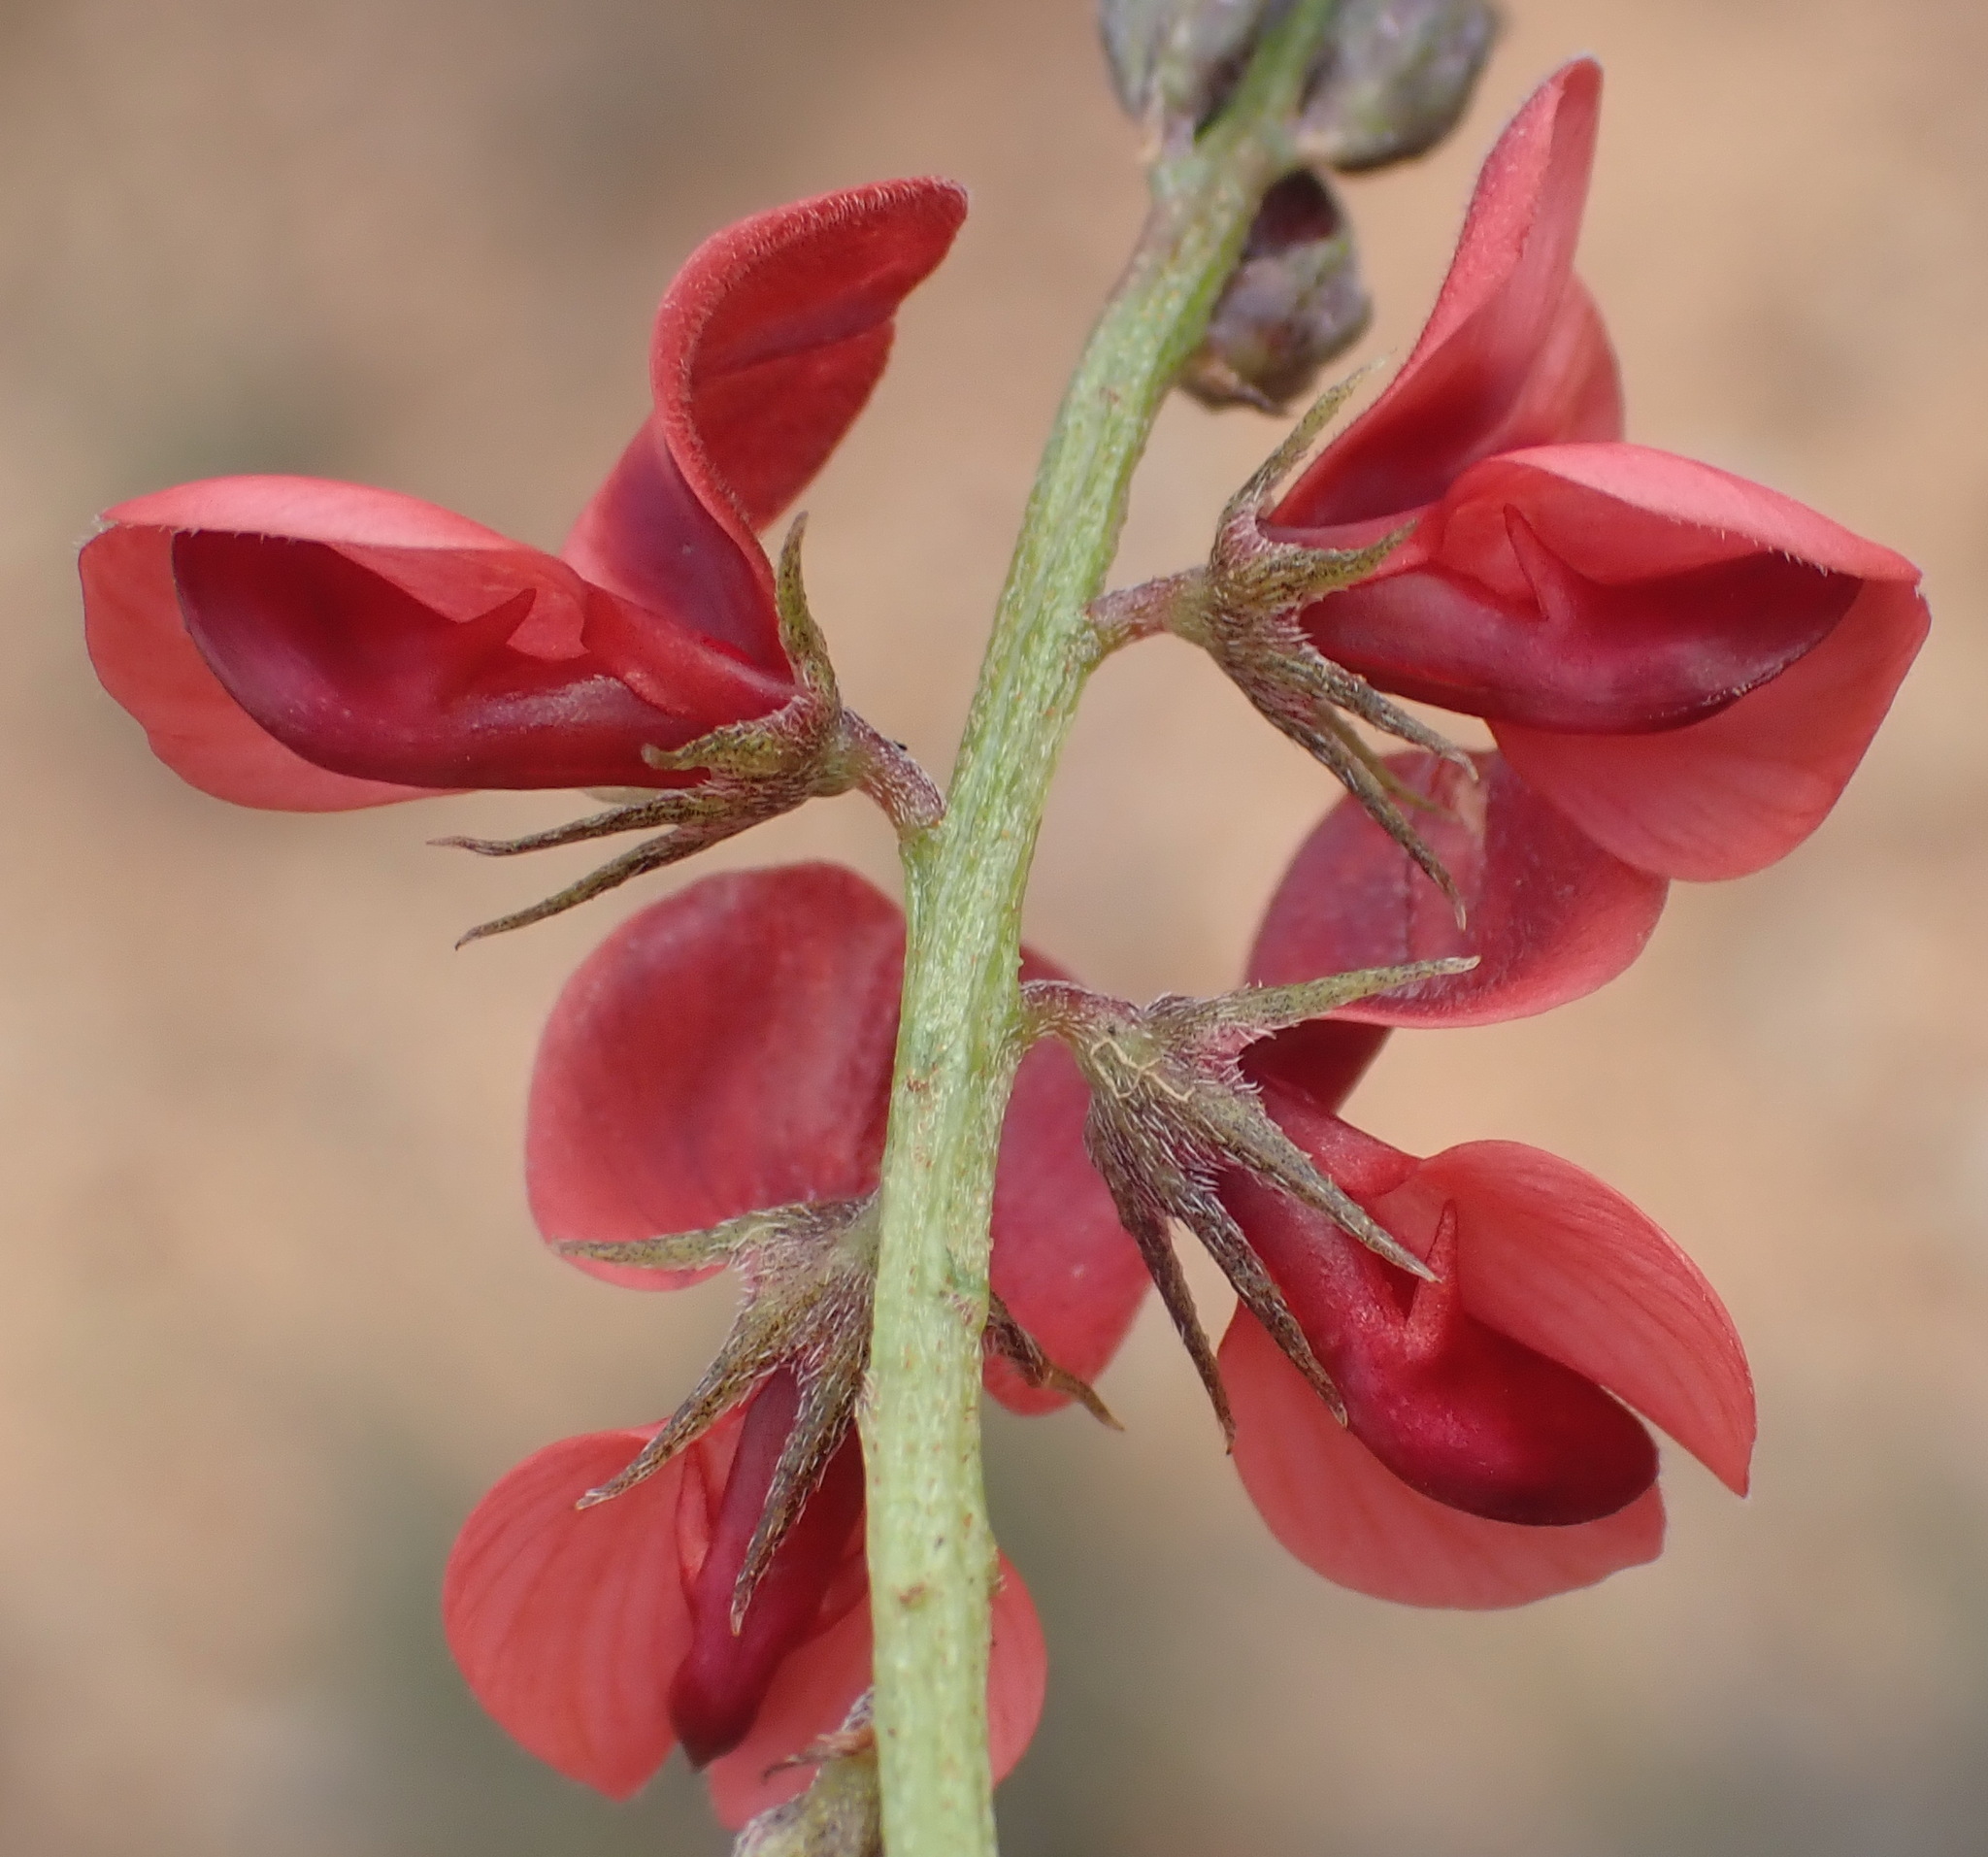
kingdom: Plantae
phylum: Tracheophyta
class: Magnoliopsida
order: Fabales
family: Fabaceae
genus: Indigofera
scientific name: Indigofera heterophylla
